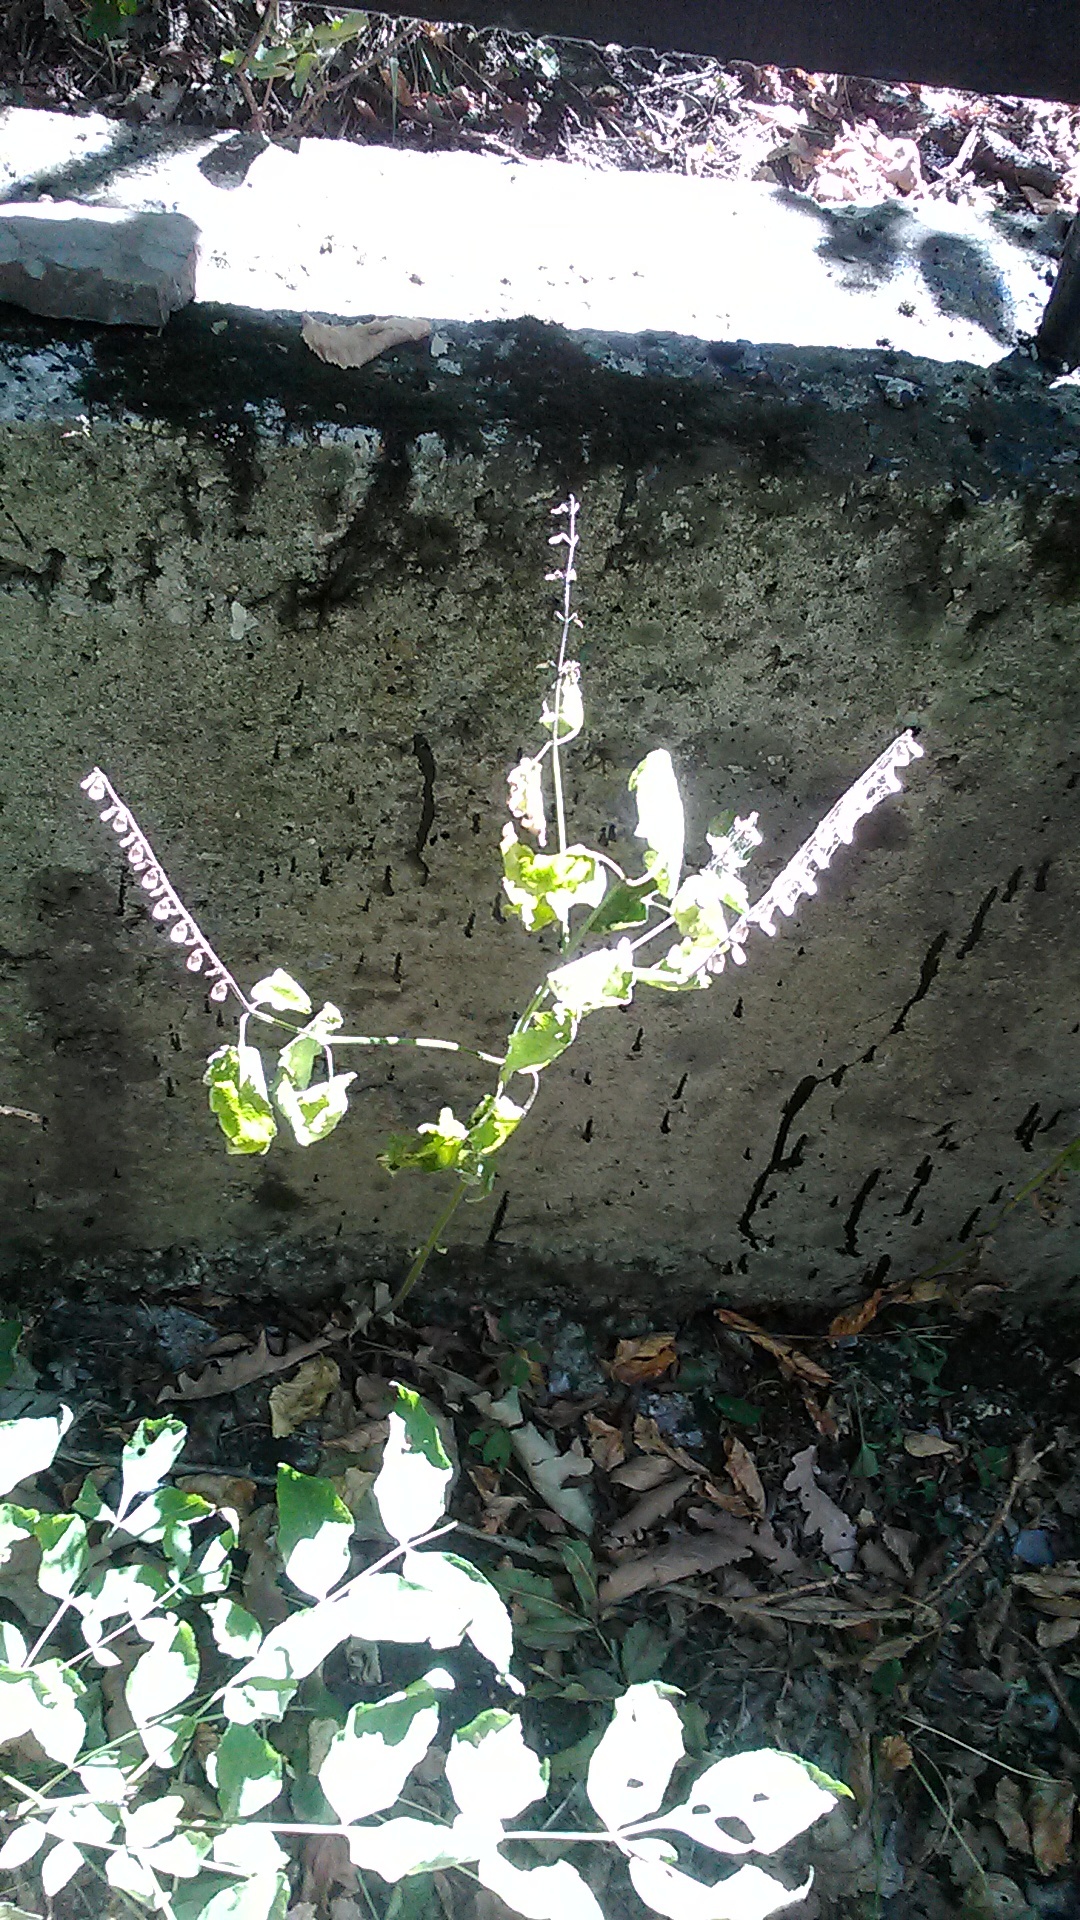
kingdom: Plantae
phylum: Tracheophyta
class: Magnoliopsida
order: Lamiales
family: Lamiaceae
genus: Scutellaria
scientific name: Scutellaria altissima
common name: Somerset skullcap
